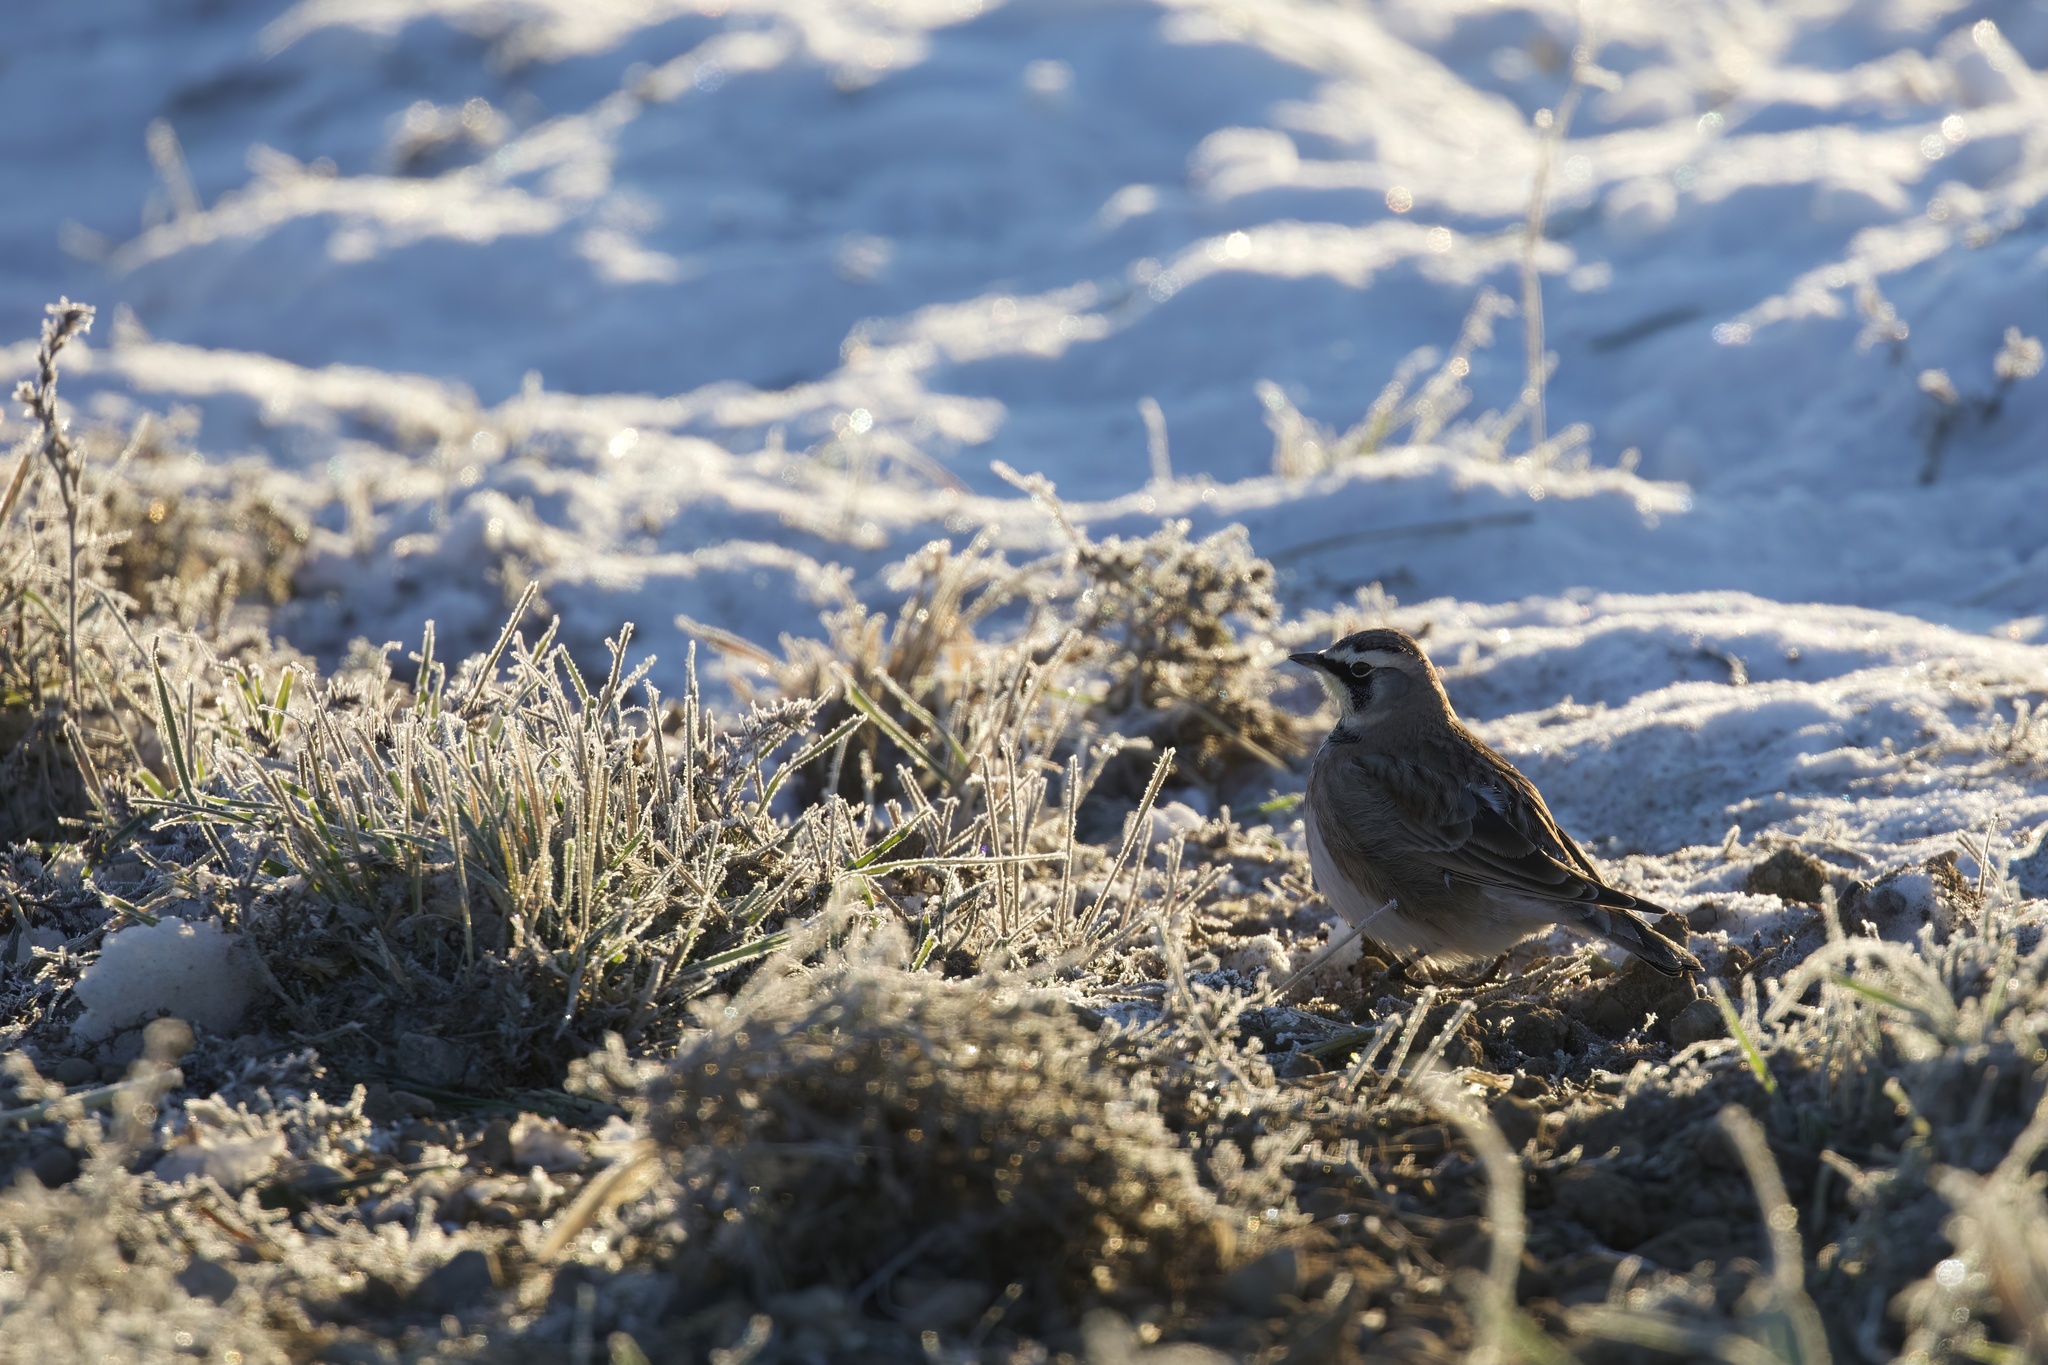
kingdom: Animalia
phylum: Chordata
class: Aves
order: Passeriformes
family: Alaudidae
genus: Eremophila
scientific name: Eremophila alpestris
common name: Horned lark
